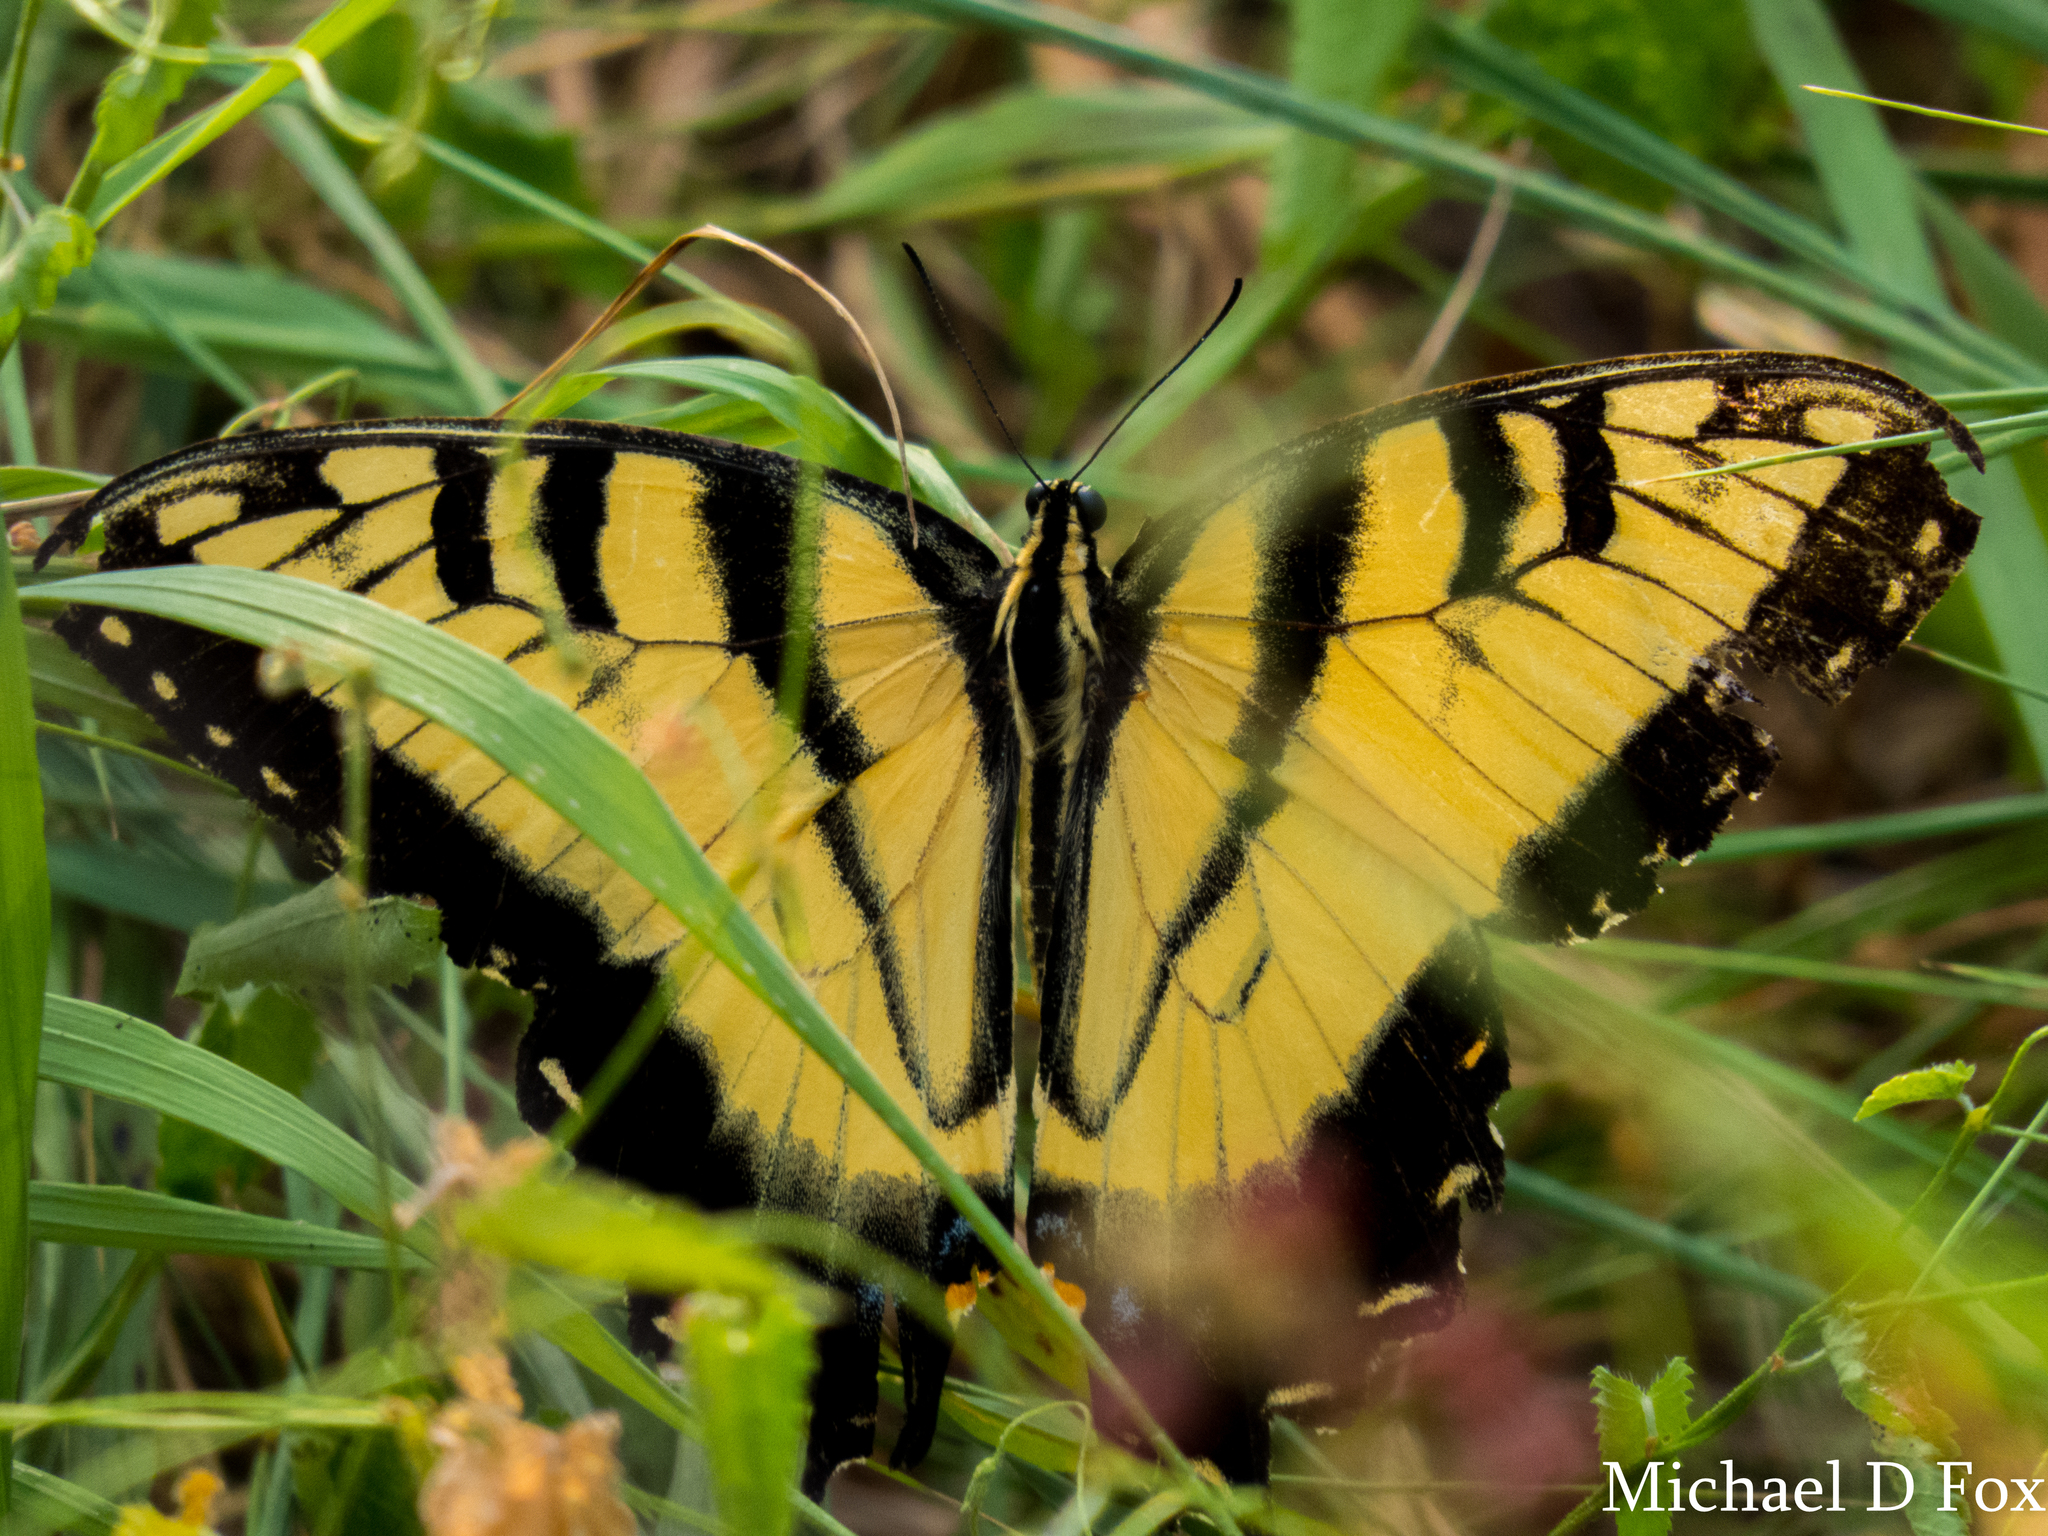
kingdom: Animalia
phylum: Arthropoda
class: Insecta
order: Lepidoptera
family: Papilionidae
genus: Papilio
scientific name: Papilio glaucus
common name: Tiger swallowtail
